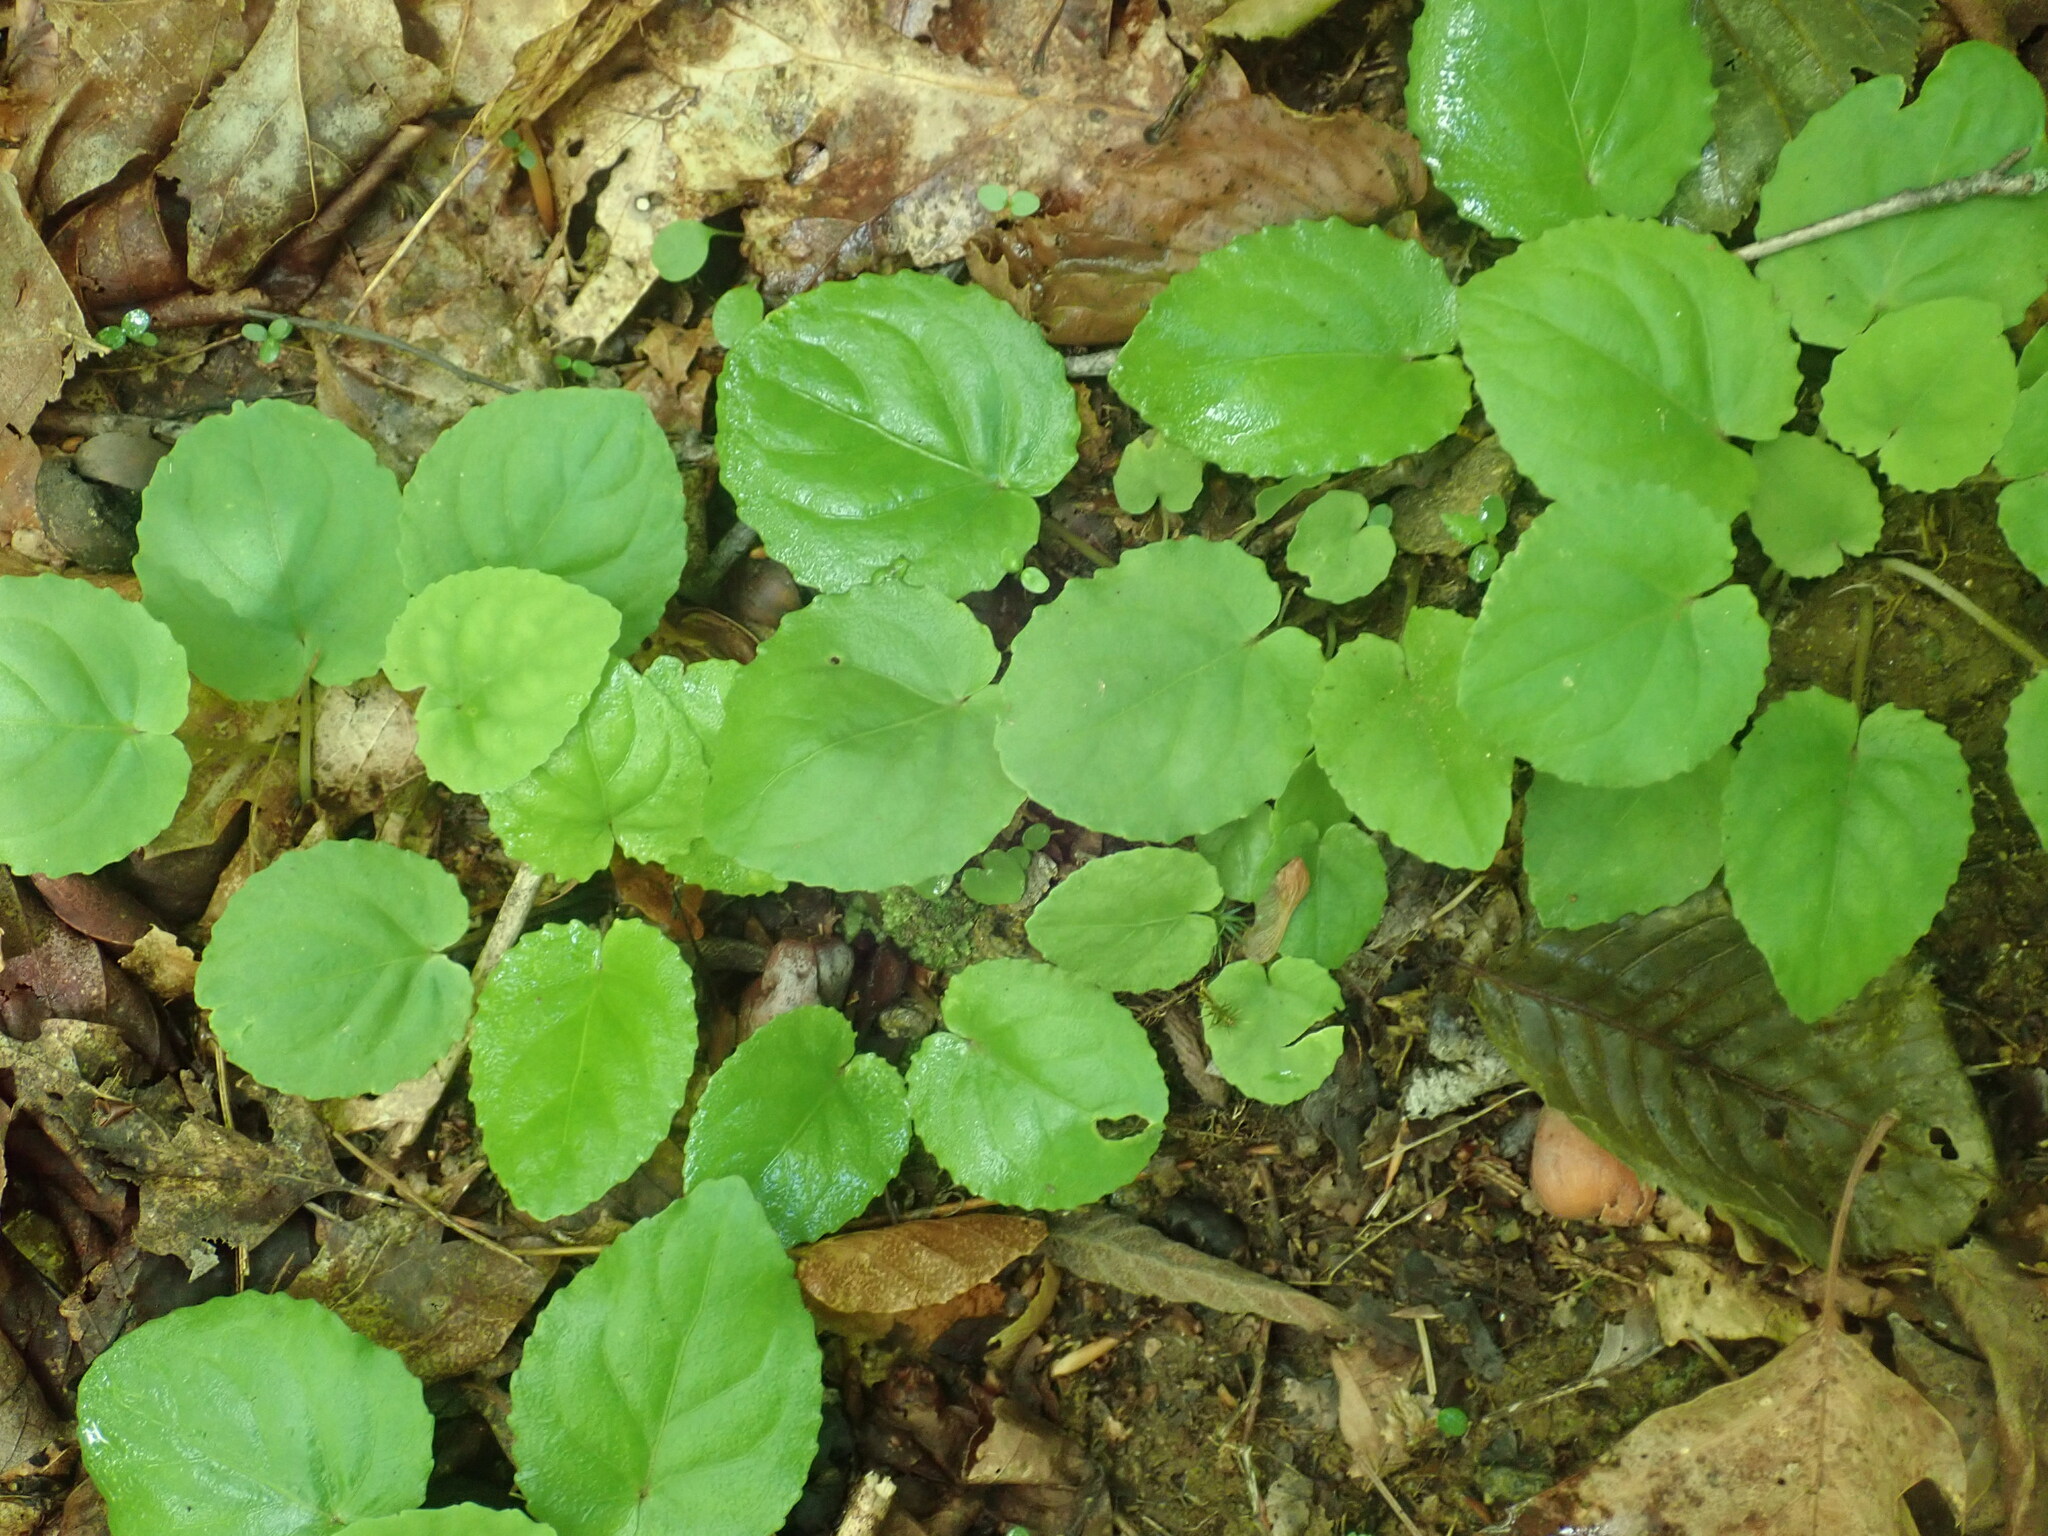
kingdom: Plantae
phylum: Tracheophyta
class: Magnoliopsida
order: Malpighiales
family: Violaceae
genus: Viola
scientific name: Viola rotundifolia
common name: Early yellow violet
